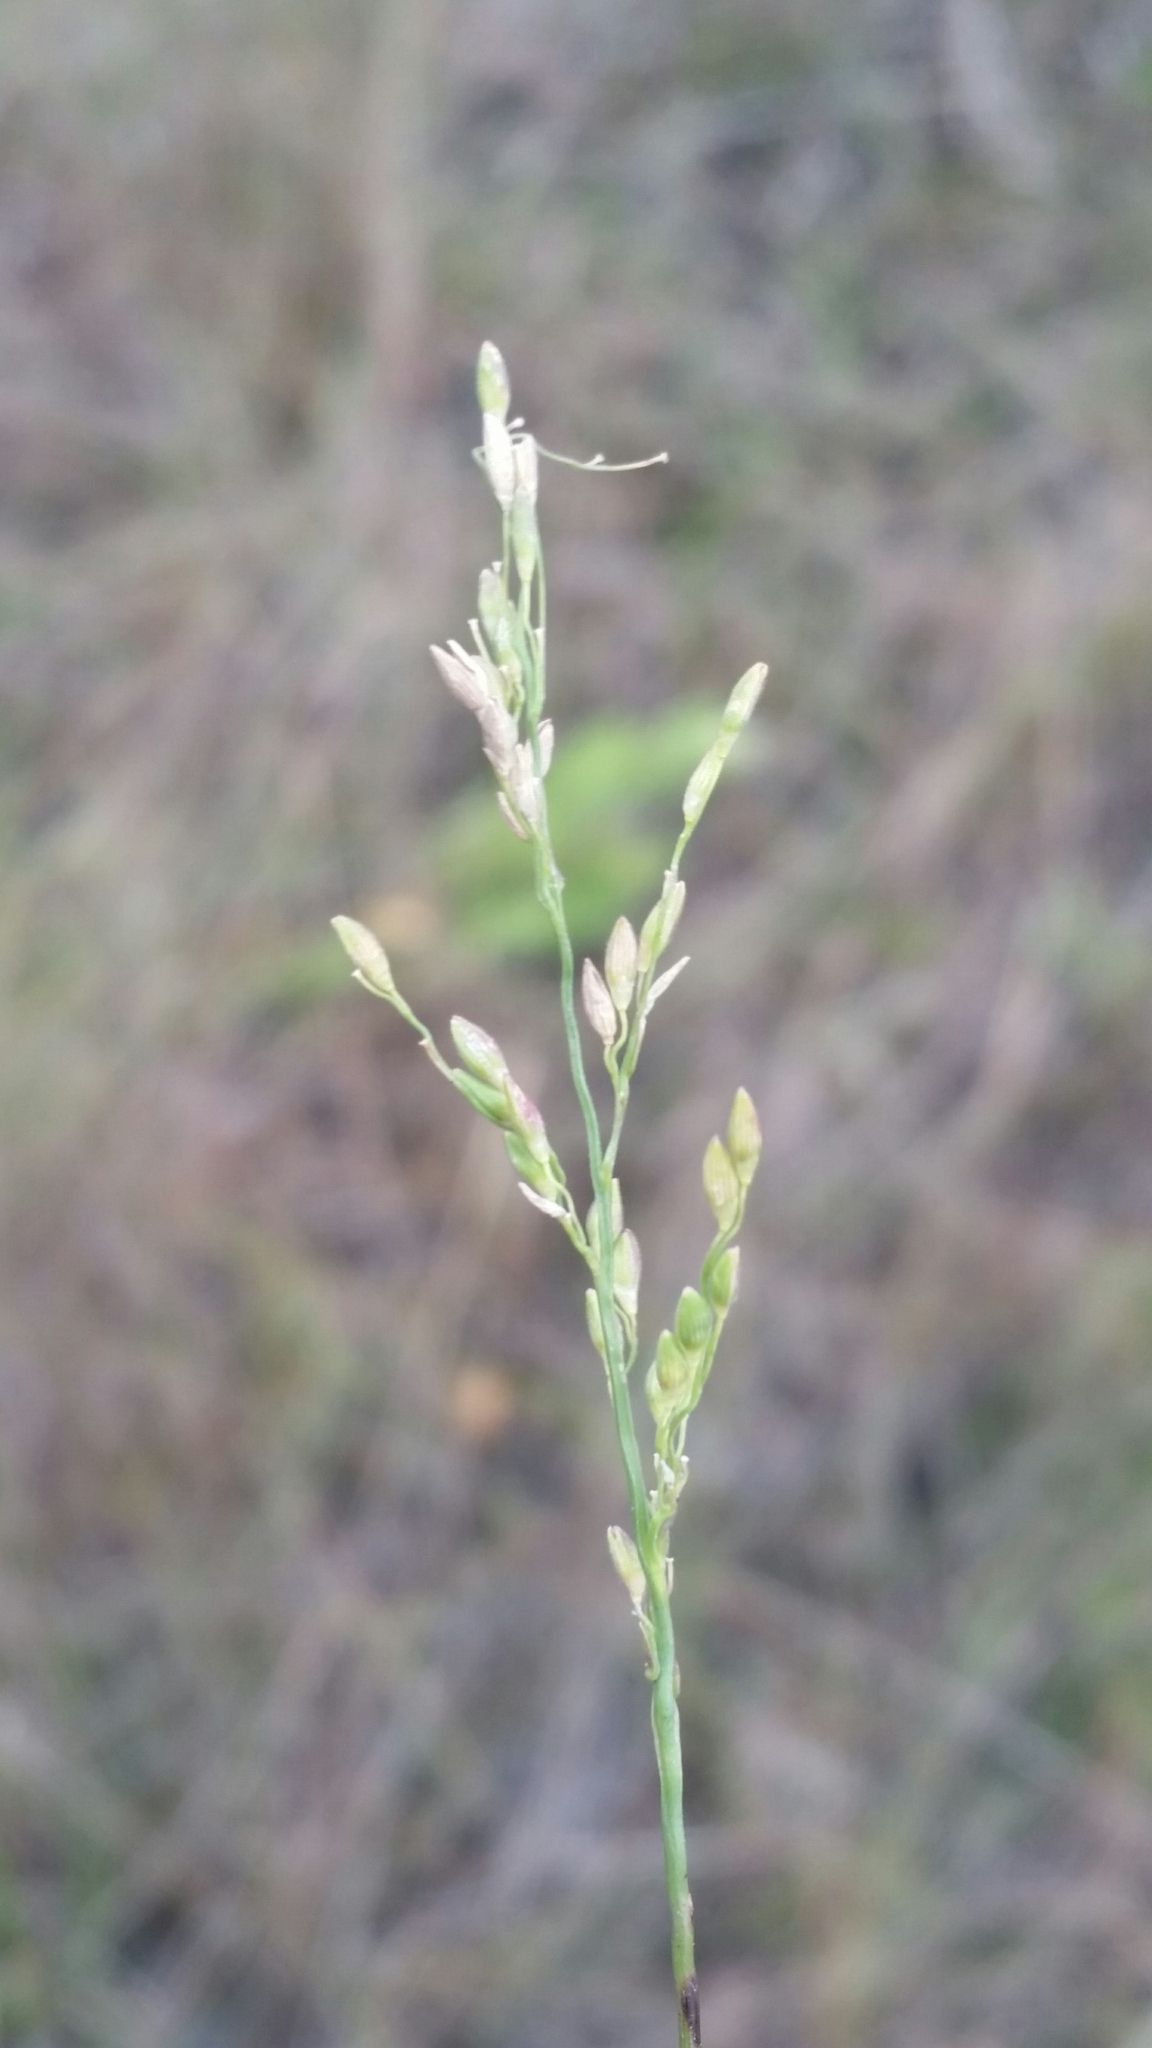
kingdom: Plantae
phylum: Tracheophyta
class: Liliopsida
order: Poales
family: Poaceae
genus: Dichanthelium
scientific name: Dichanthelium pinetorum
